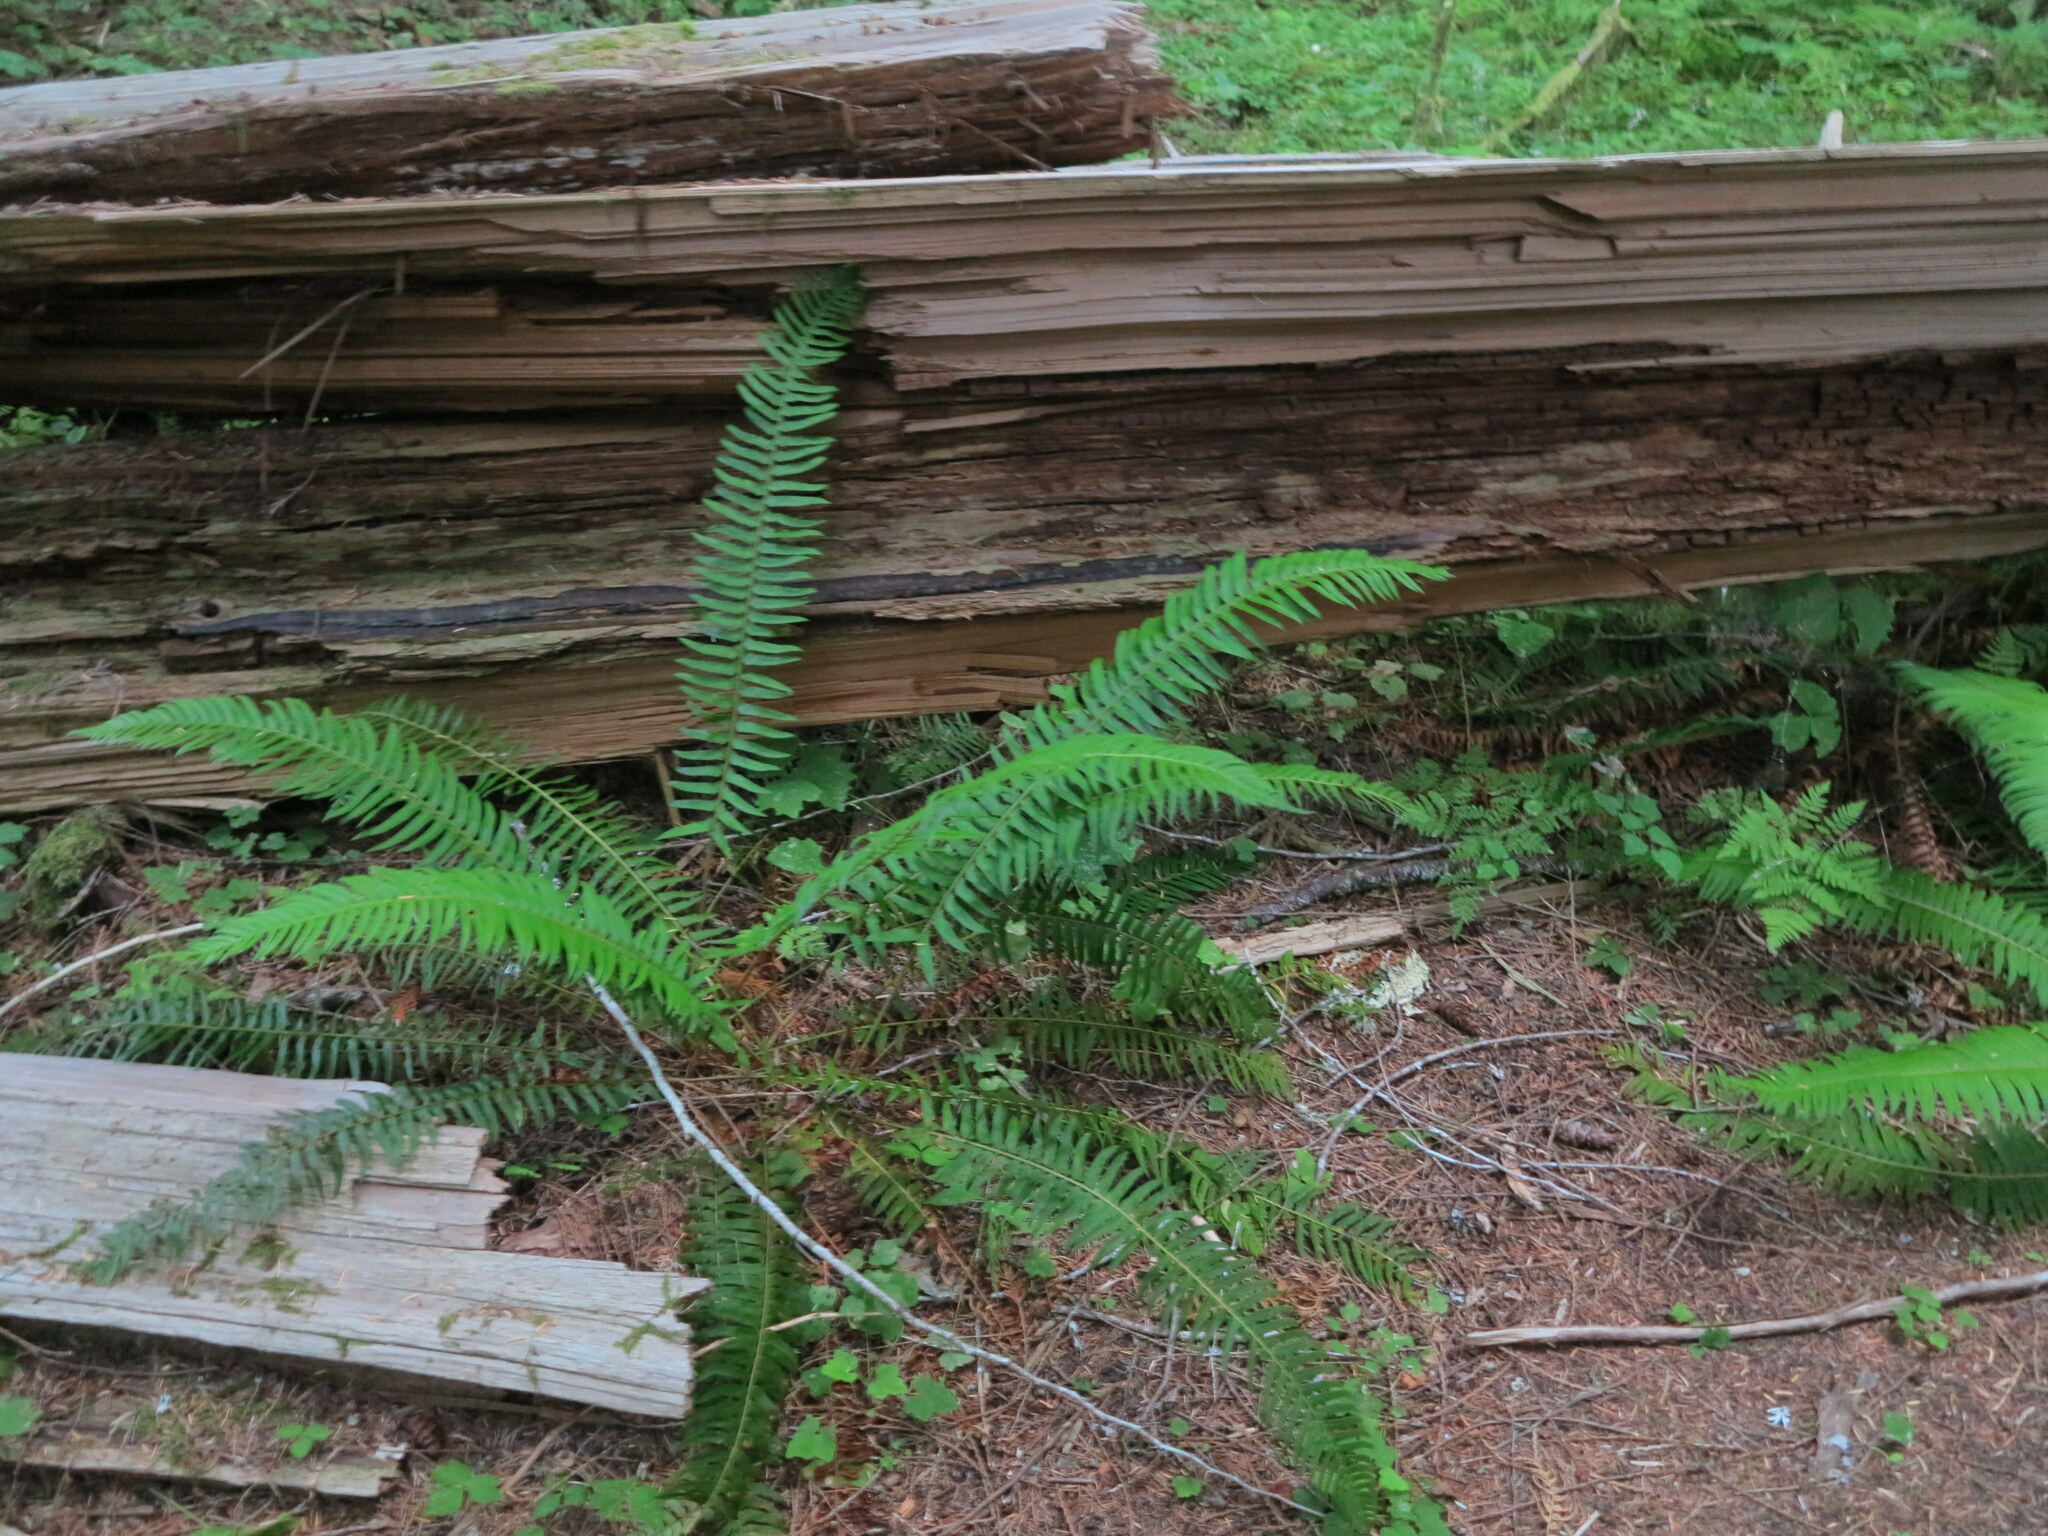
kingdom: Plantae
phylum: Tracheophyta
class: Polypodiopsida
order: Polypodiales
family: Dryopteridaceae
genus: Polystichum
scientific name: Polystichum munitum
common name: Western sword-fern
